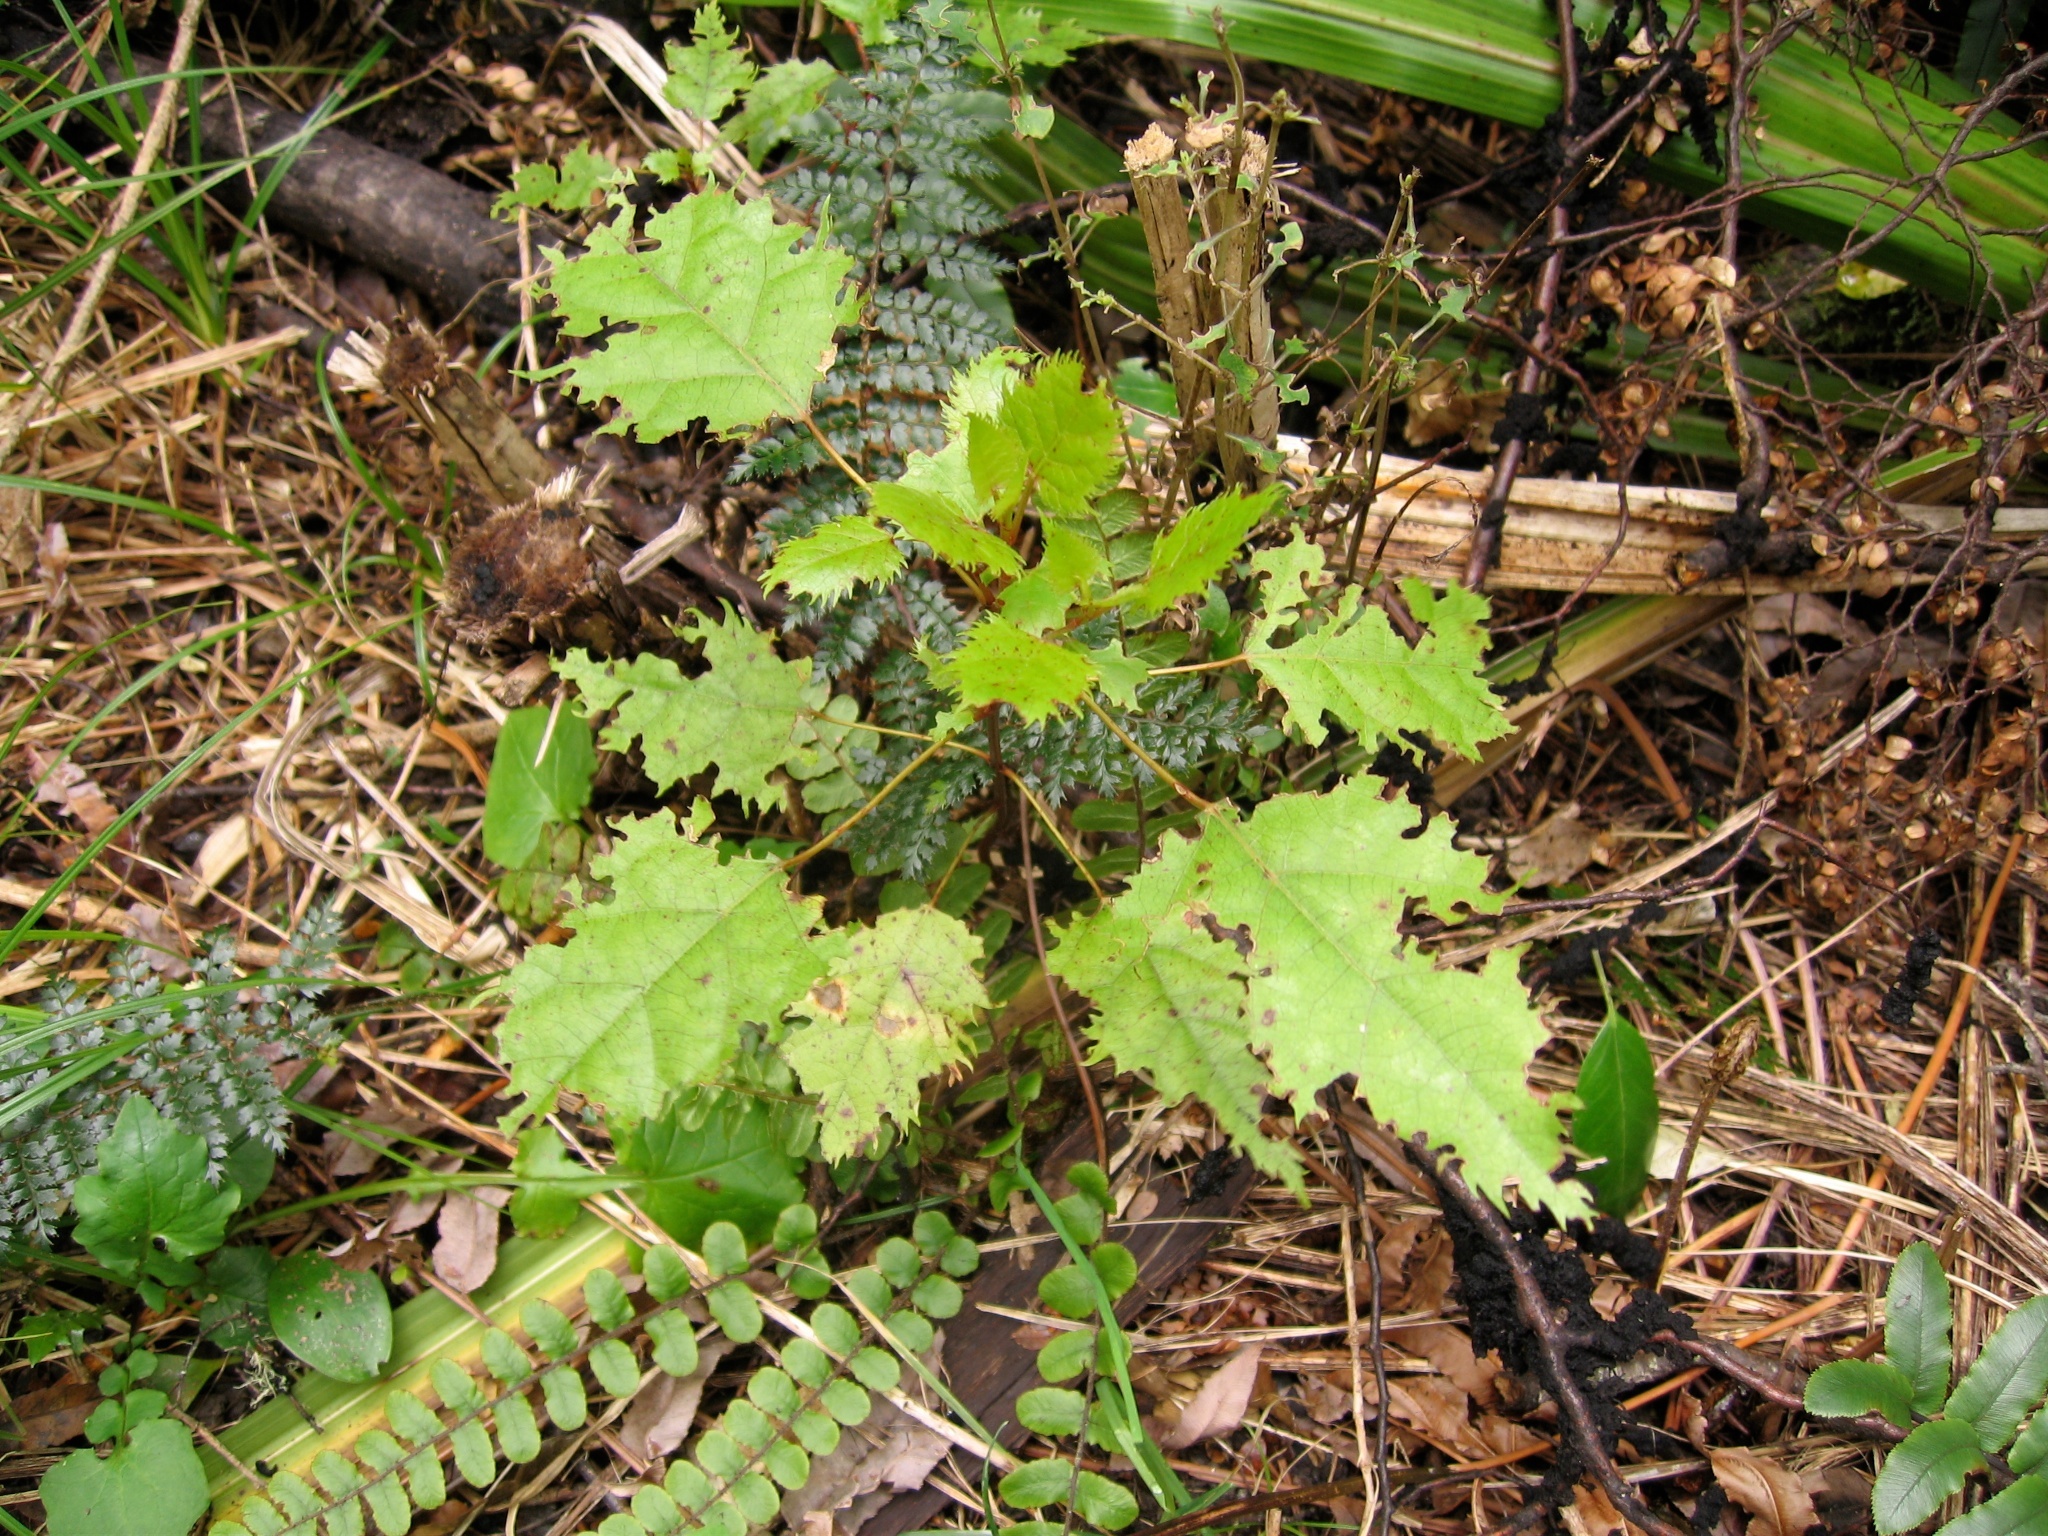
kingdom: Plantae
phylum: Tracheophyta
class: Magnoliopsida
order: Oxalidales
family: Elaeocarpaceae
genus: Aristotelia
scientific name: Aristotelia serrata
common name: New zealand wineberry
